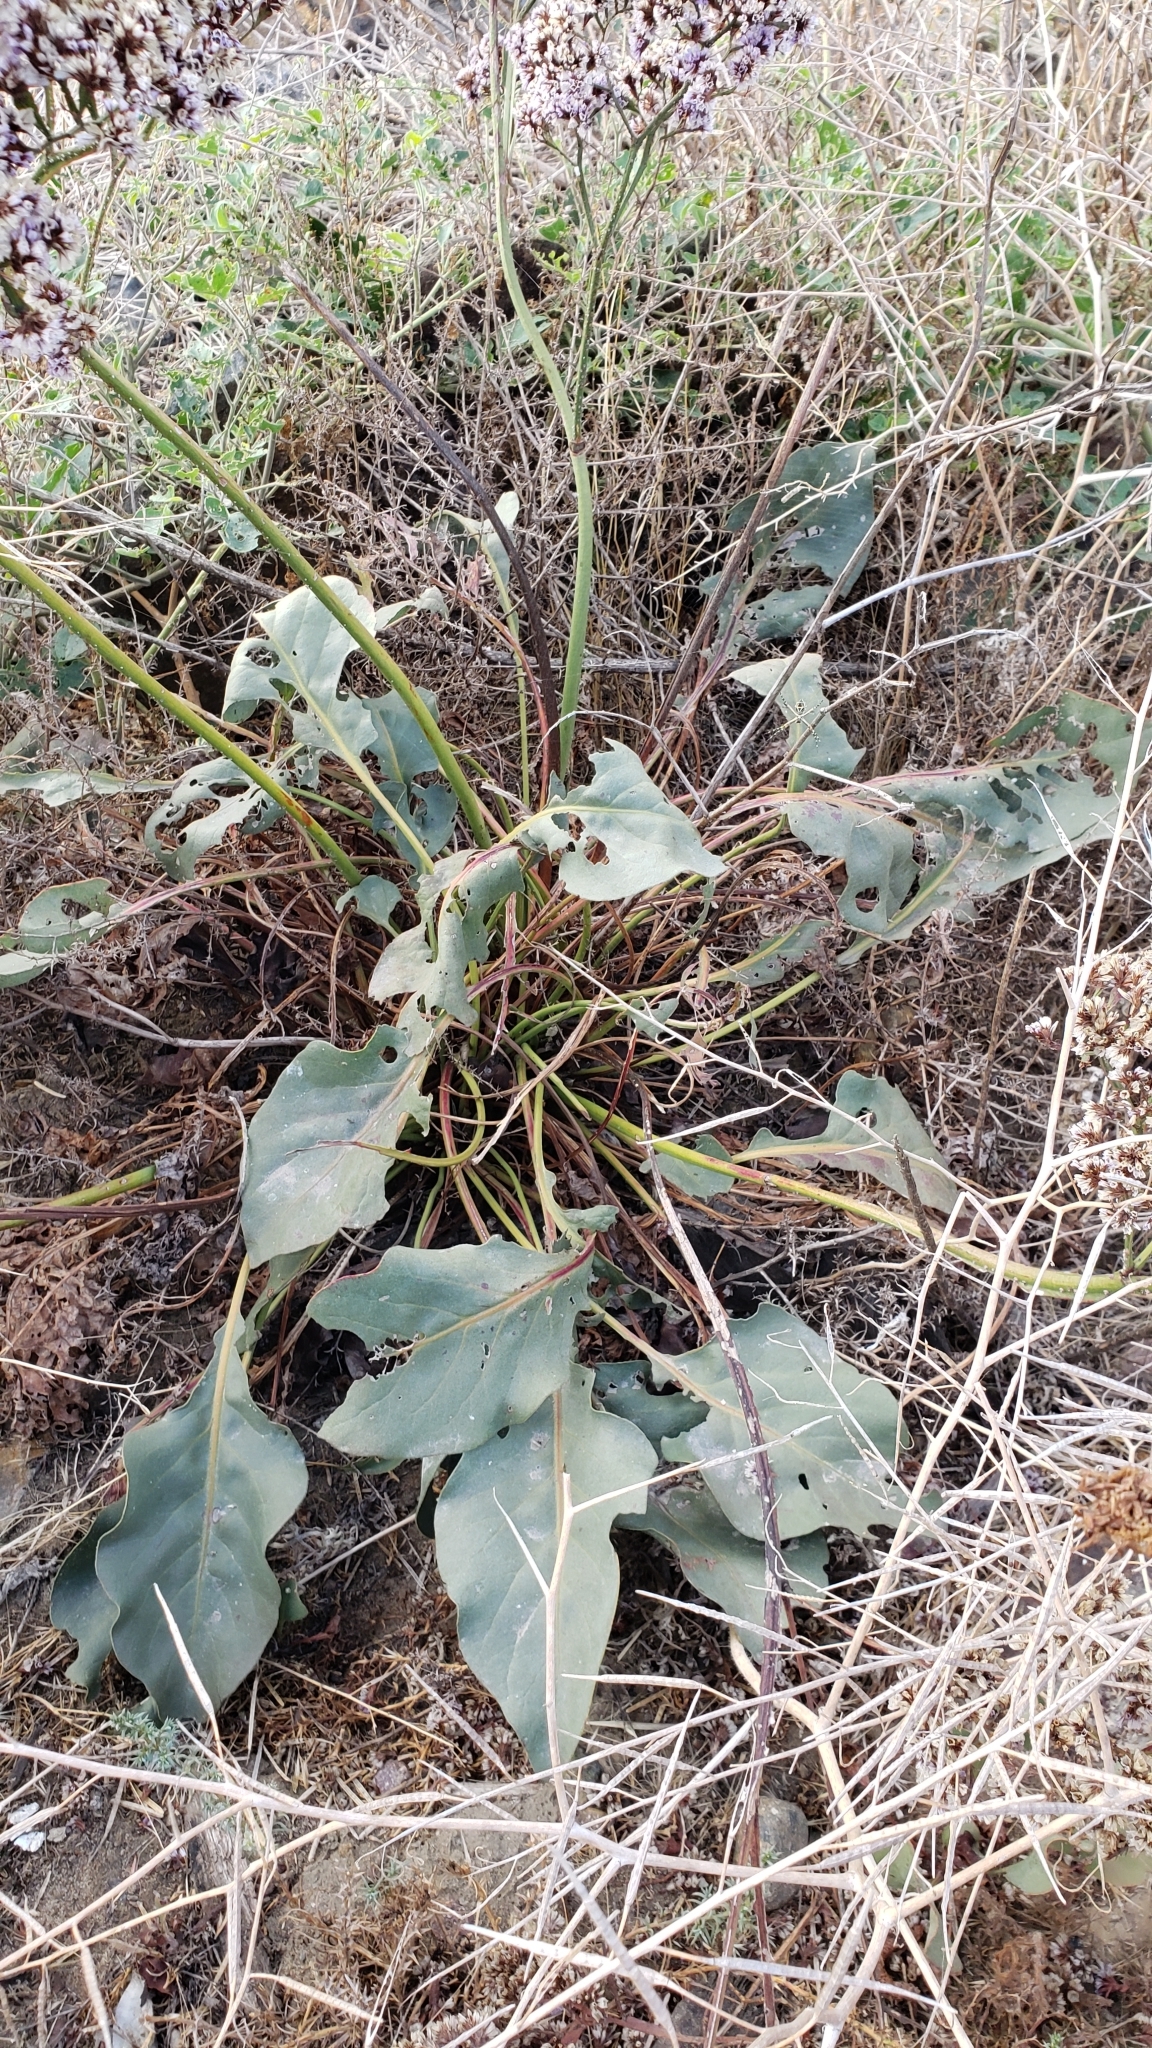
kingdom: Plantae
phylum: Tracheophyta
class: Magnoliopsida
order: Caryophyllales
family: Plumbaginaceae
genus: Limonium
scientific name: Limonium perezii
